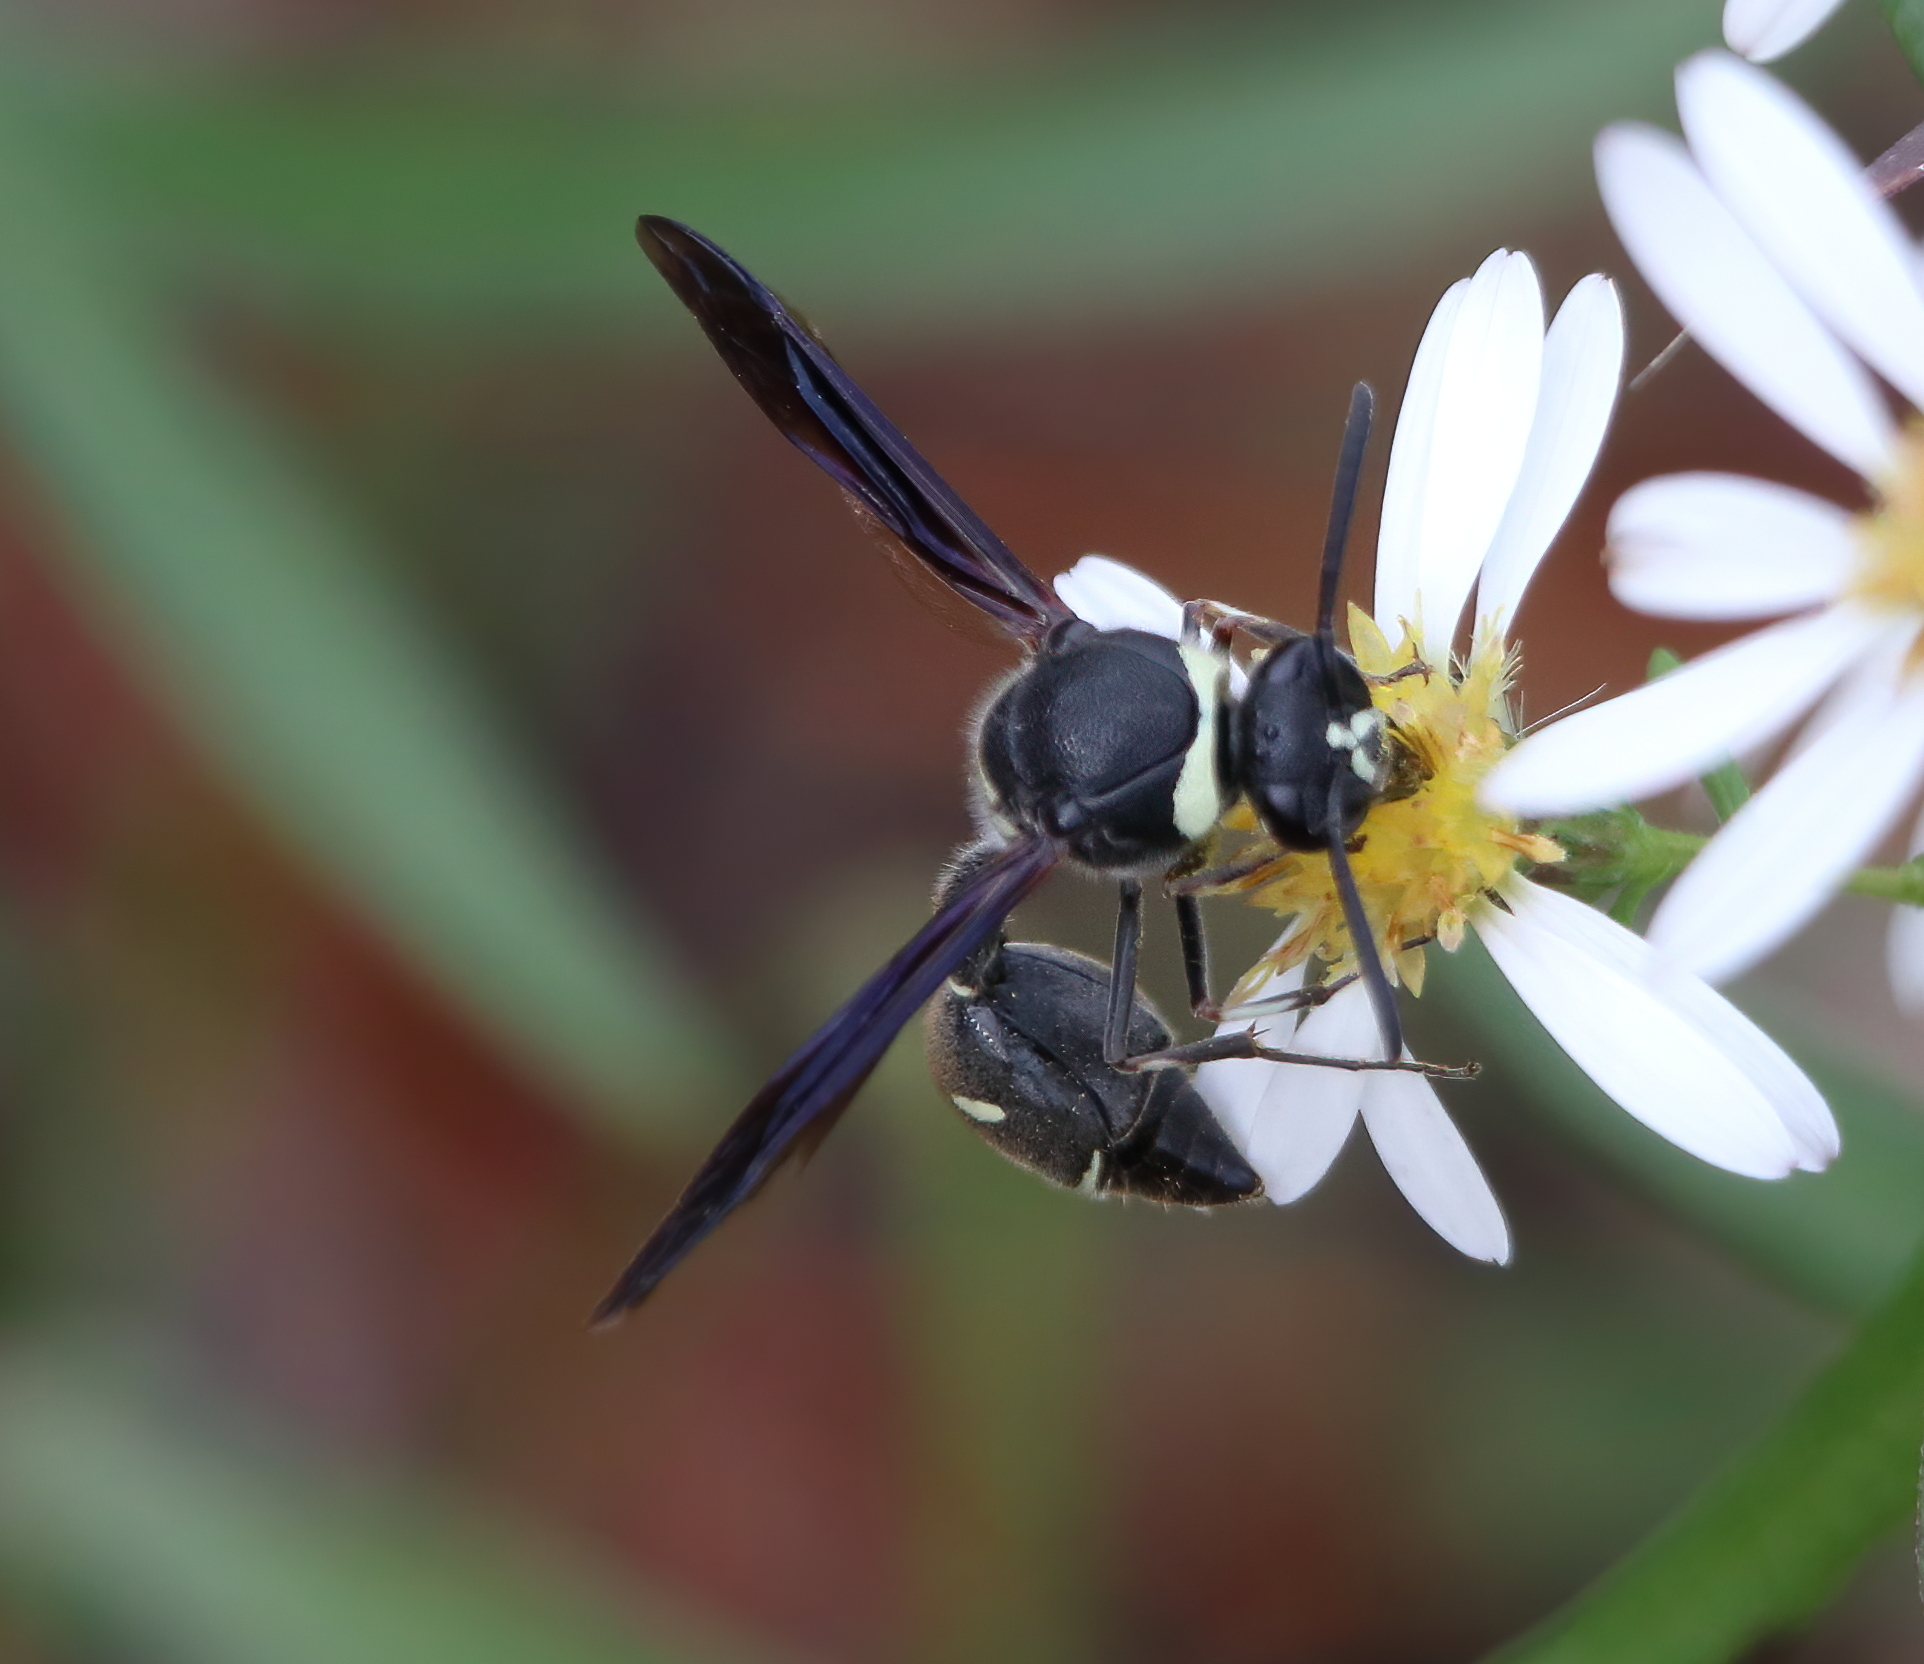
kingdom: Animalia
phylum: Arthropoda
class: Insecta
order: Hymenoptera
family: Vespidae
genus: Eumenes
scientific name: Eumenes fraternus
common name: Fraternal potter wasp
